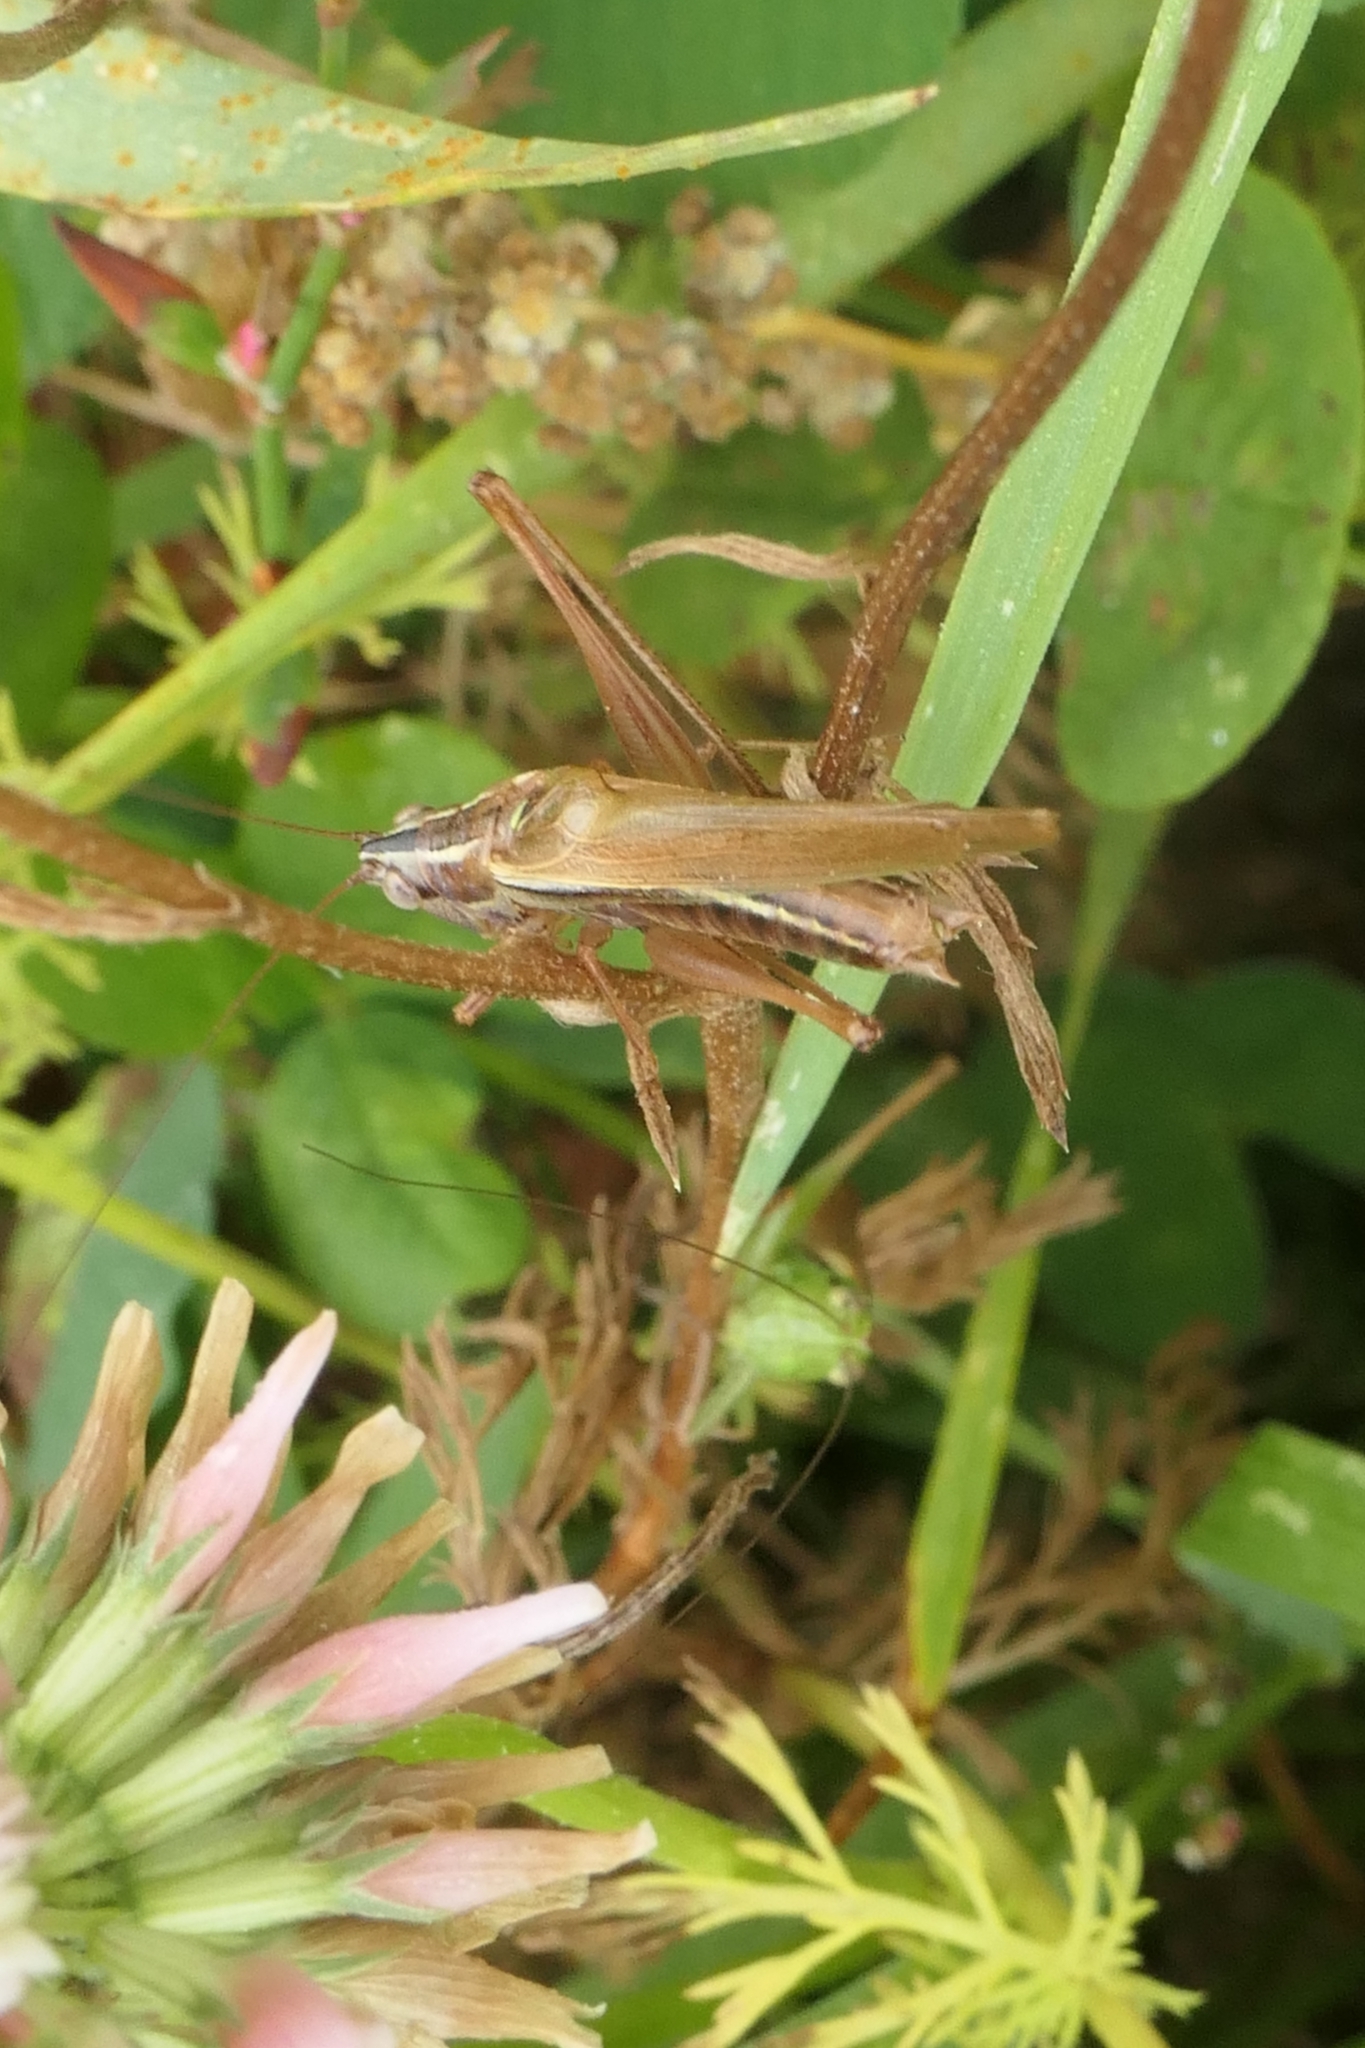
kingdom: Animalia
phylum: Arthropoda
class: Insecta
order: Orthoptera
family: Tettigoniidae
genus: Conocephalus
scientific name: Conocephalus bilineatus
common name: Small meadow katydid
